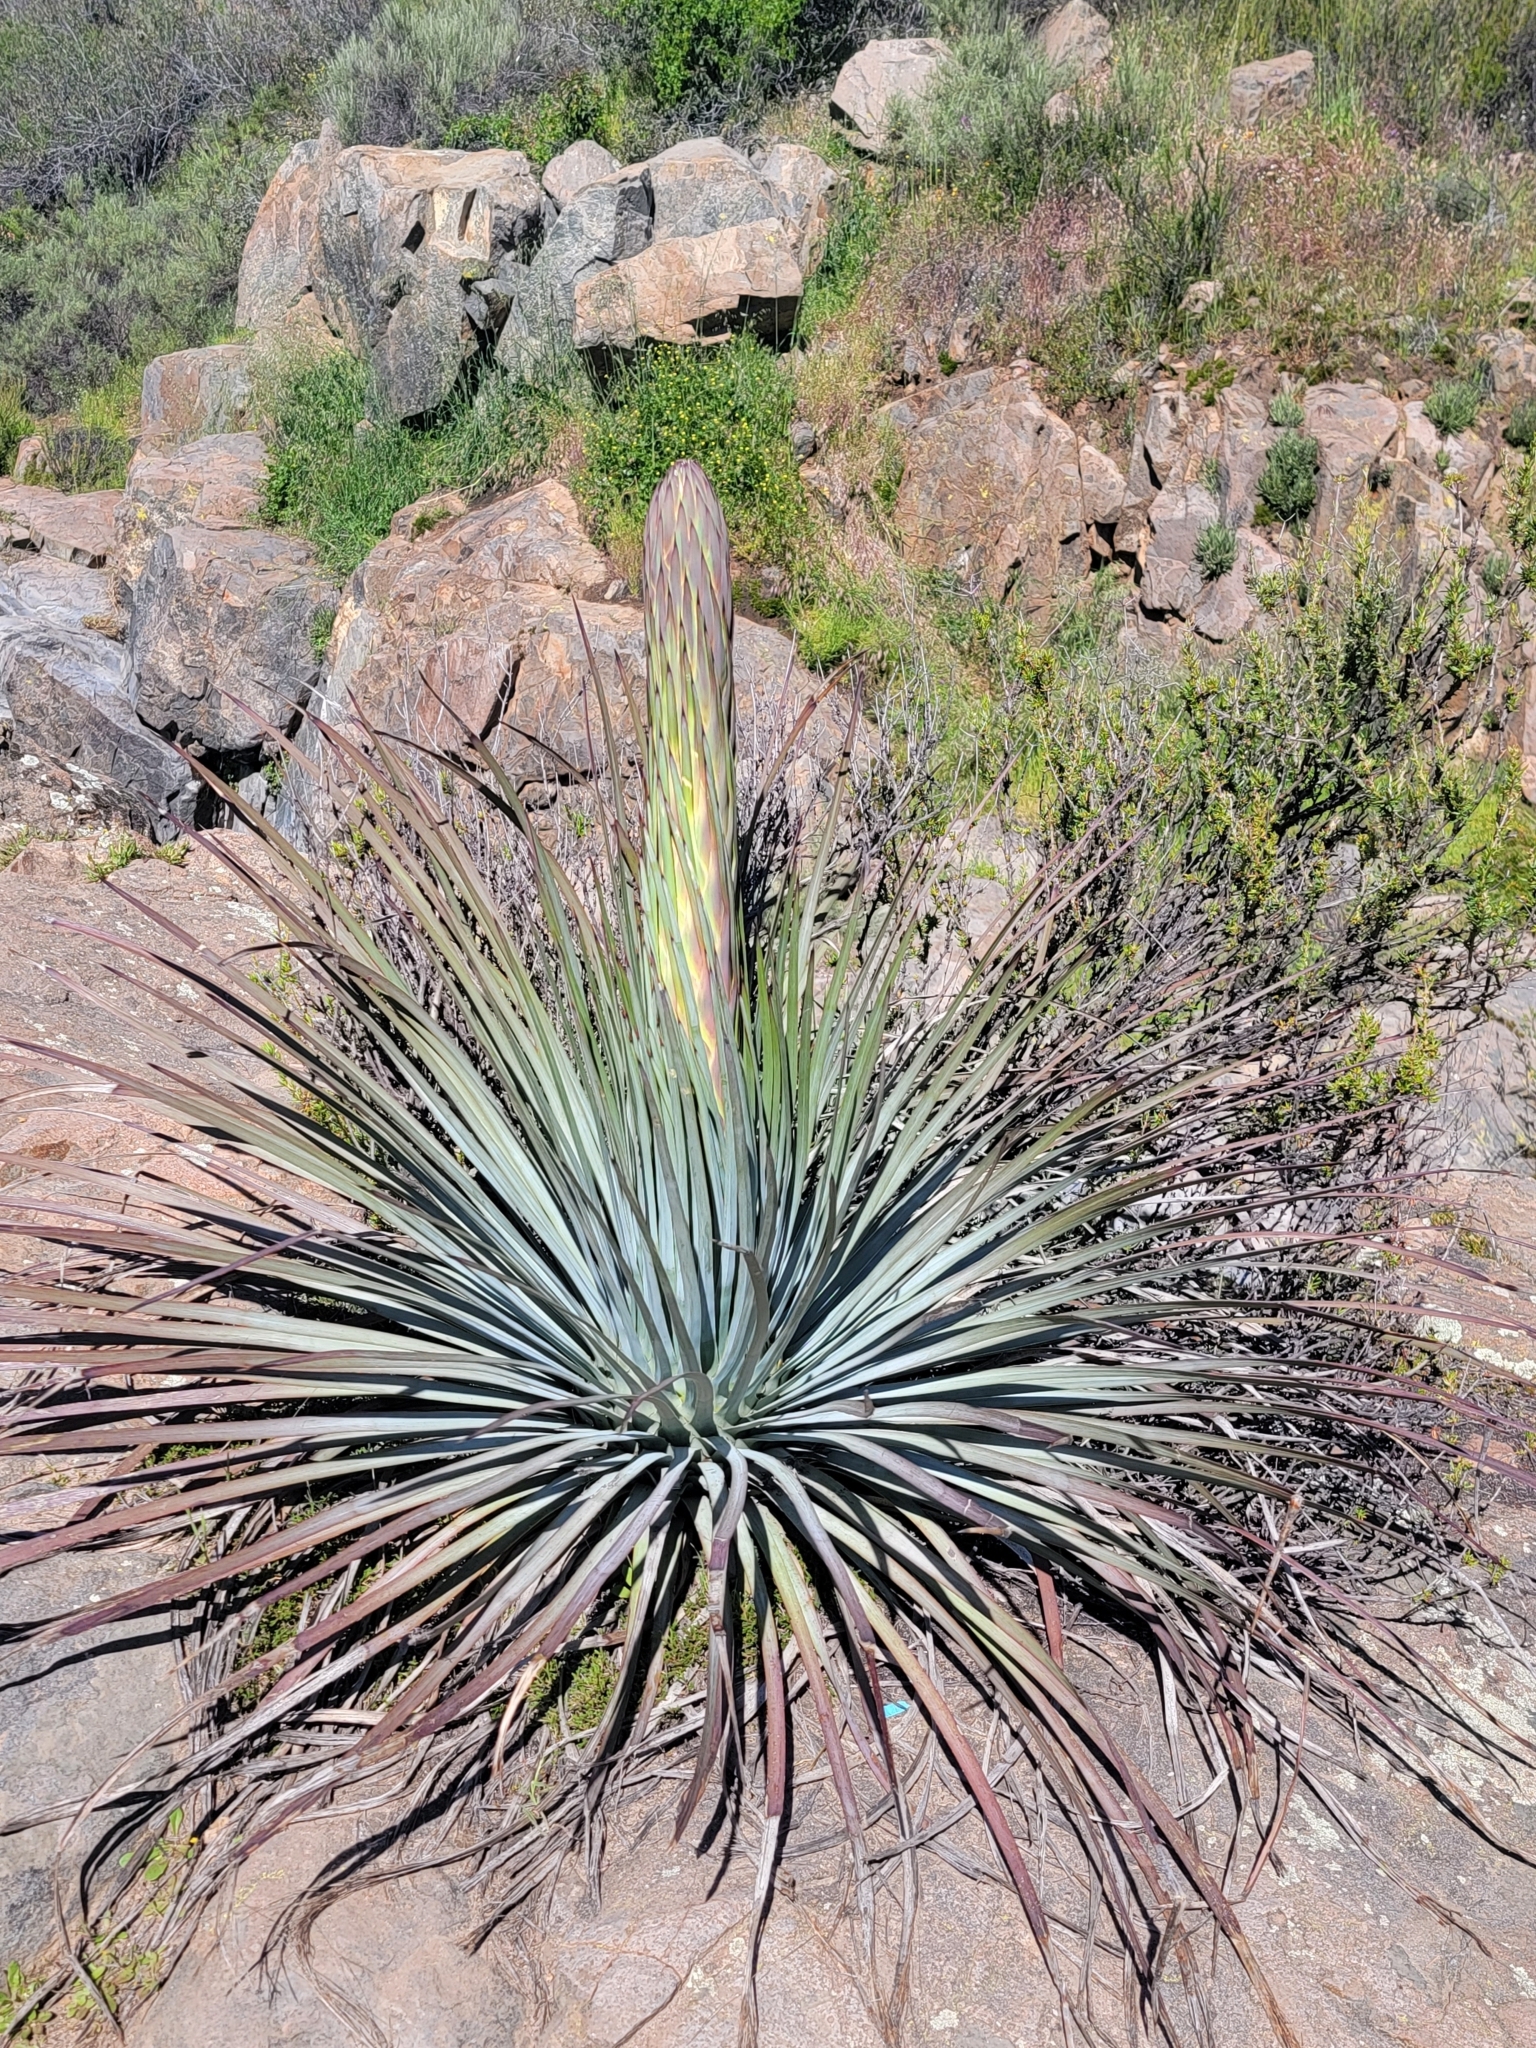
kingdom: Plantae
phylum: Tracheophyta
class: Liliopsida
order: Asparagales
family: Asparagaceae
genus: Hesperoyucca
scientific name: Hesperoyucca whipplei
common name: Our lord's-candle
